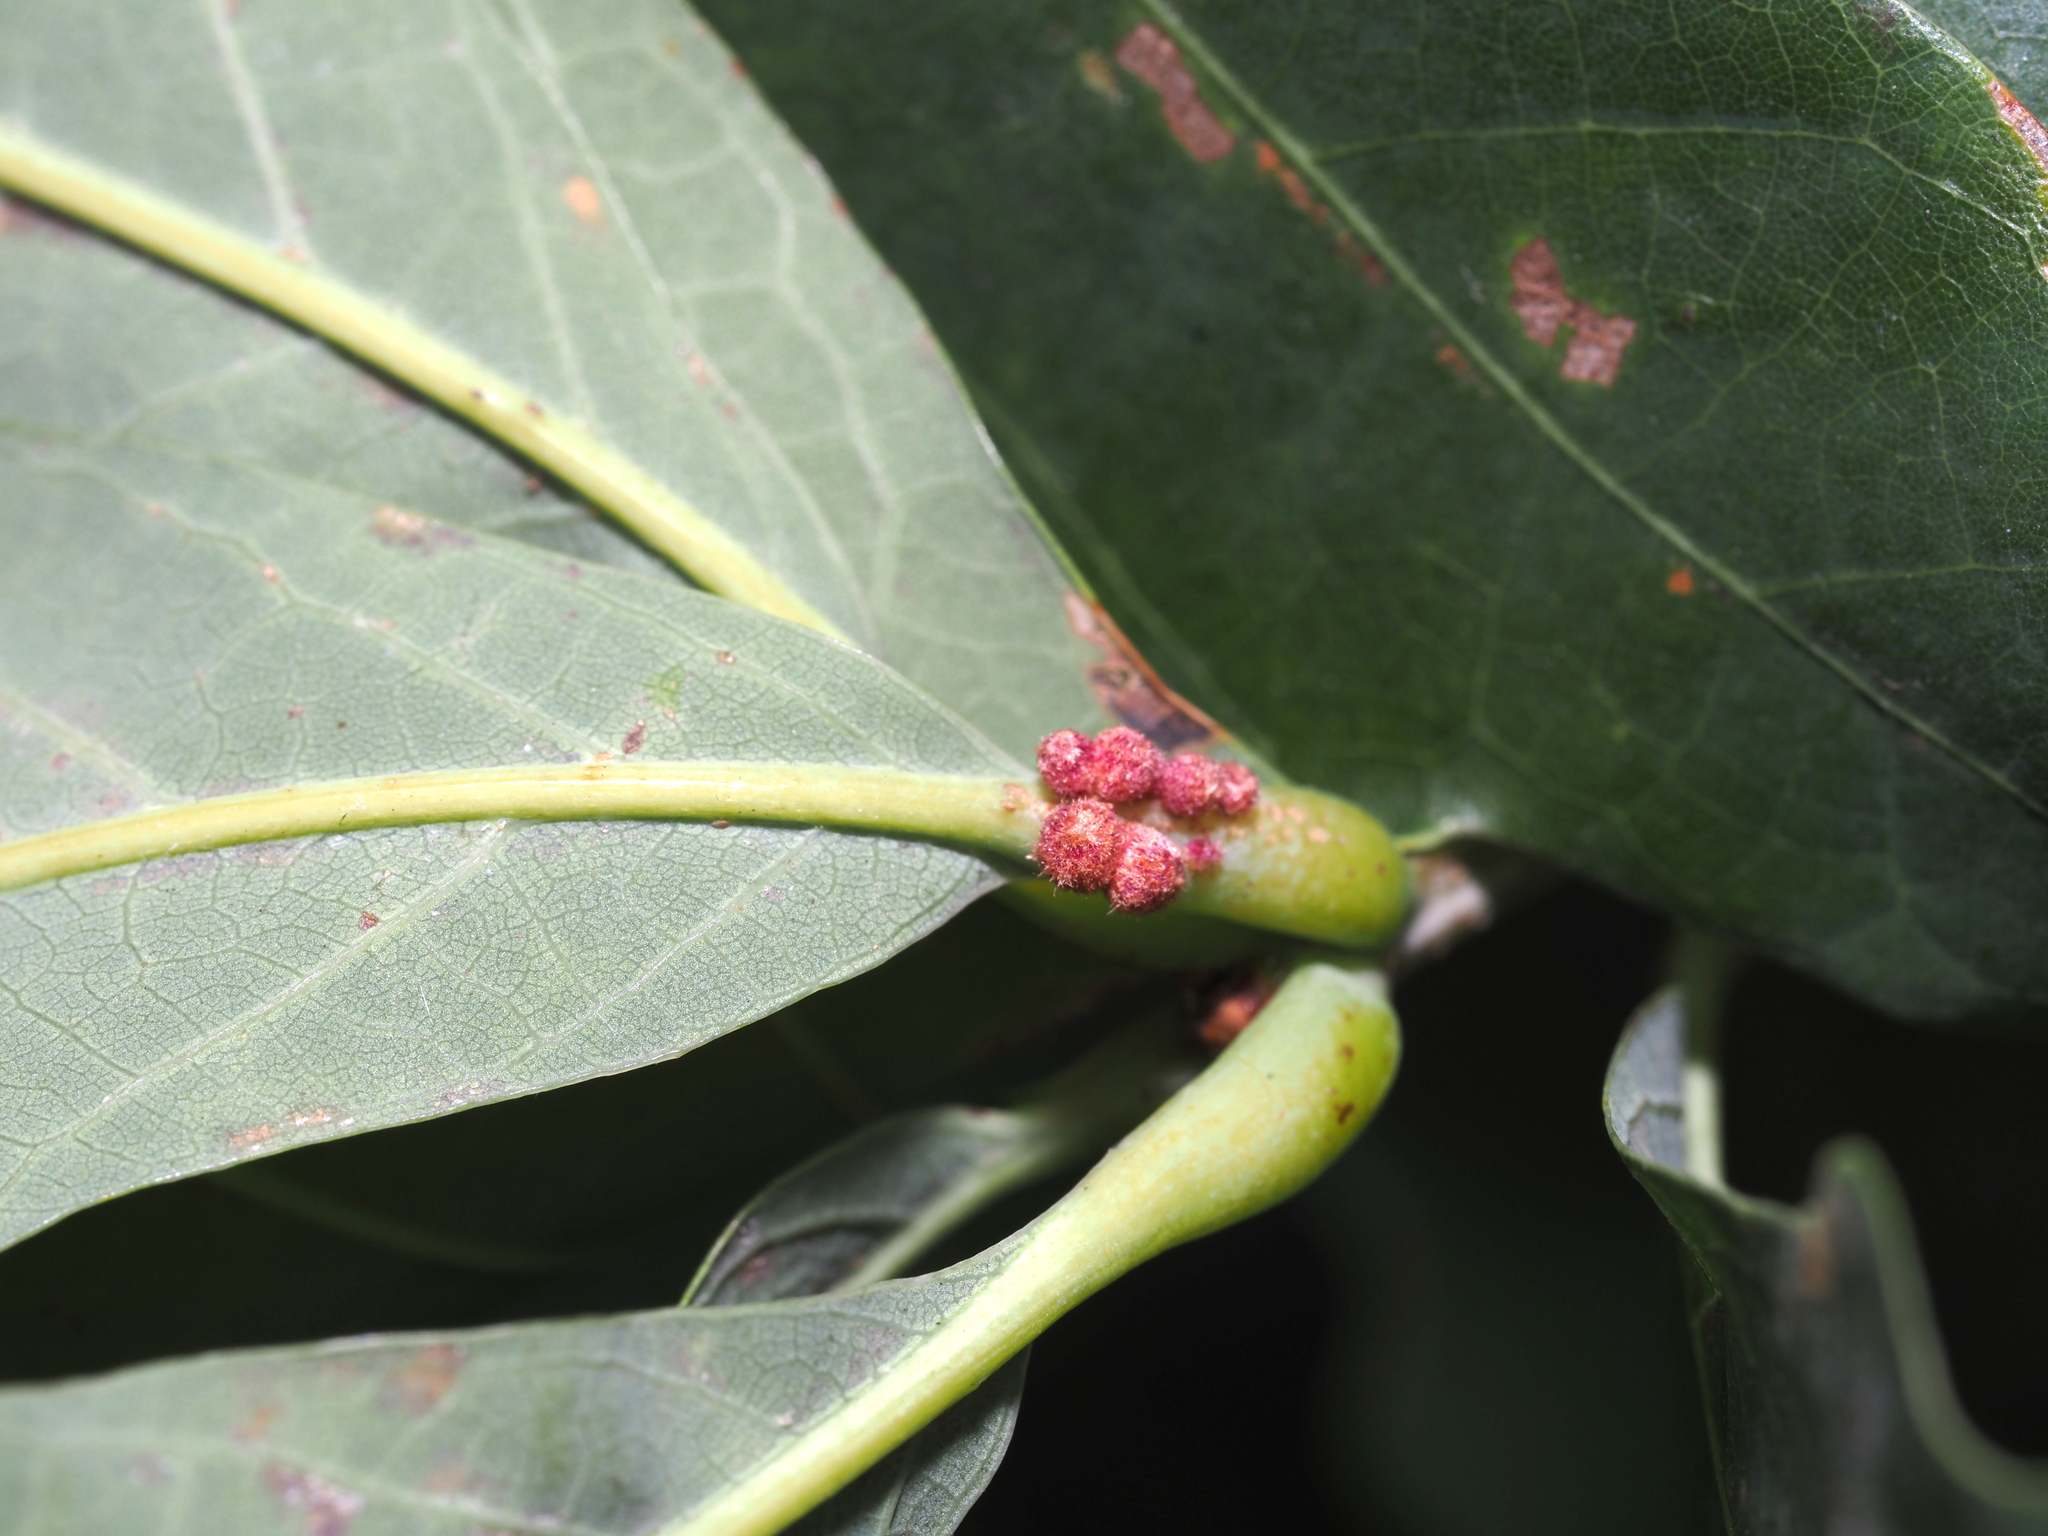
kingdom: Animalia
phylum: Arthropoda
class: Insecta
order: Hymenoptera
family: Cynipidae
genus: Andricus
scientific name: Andricus
